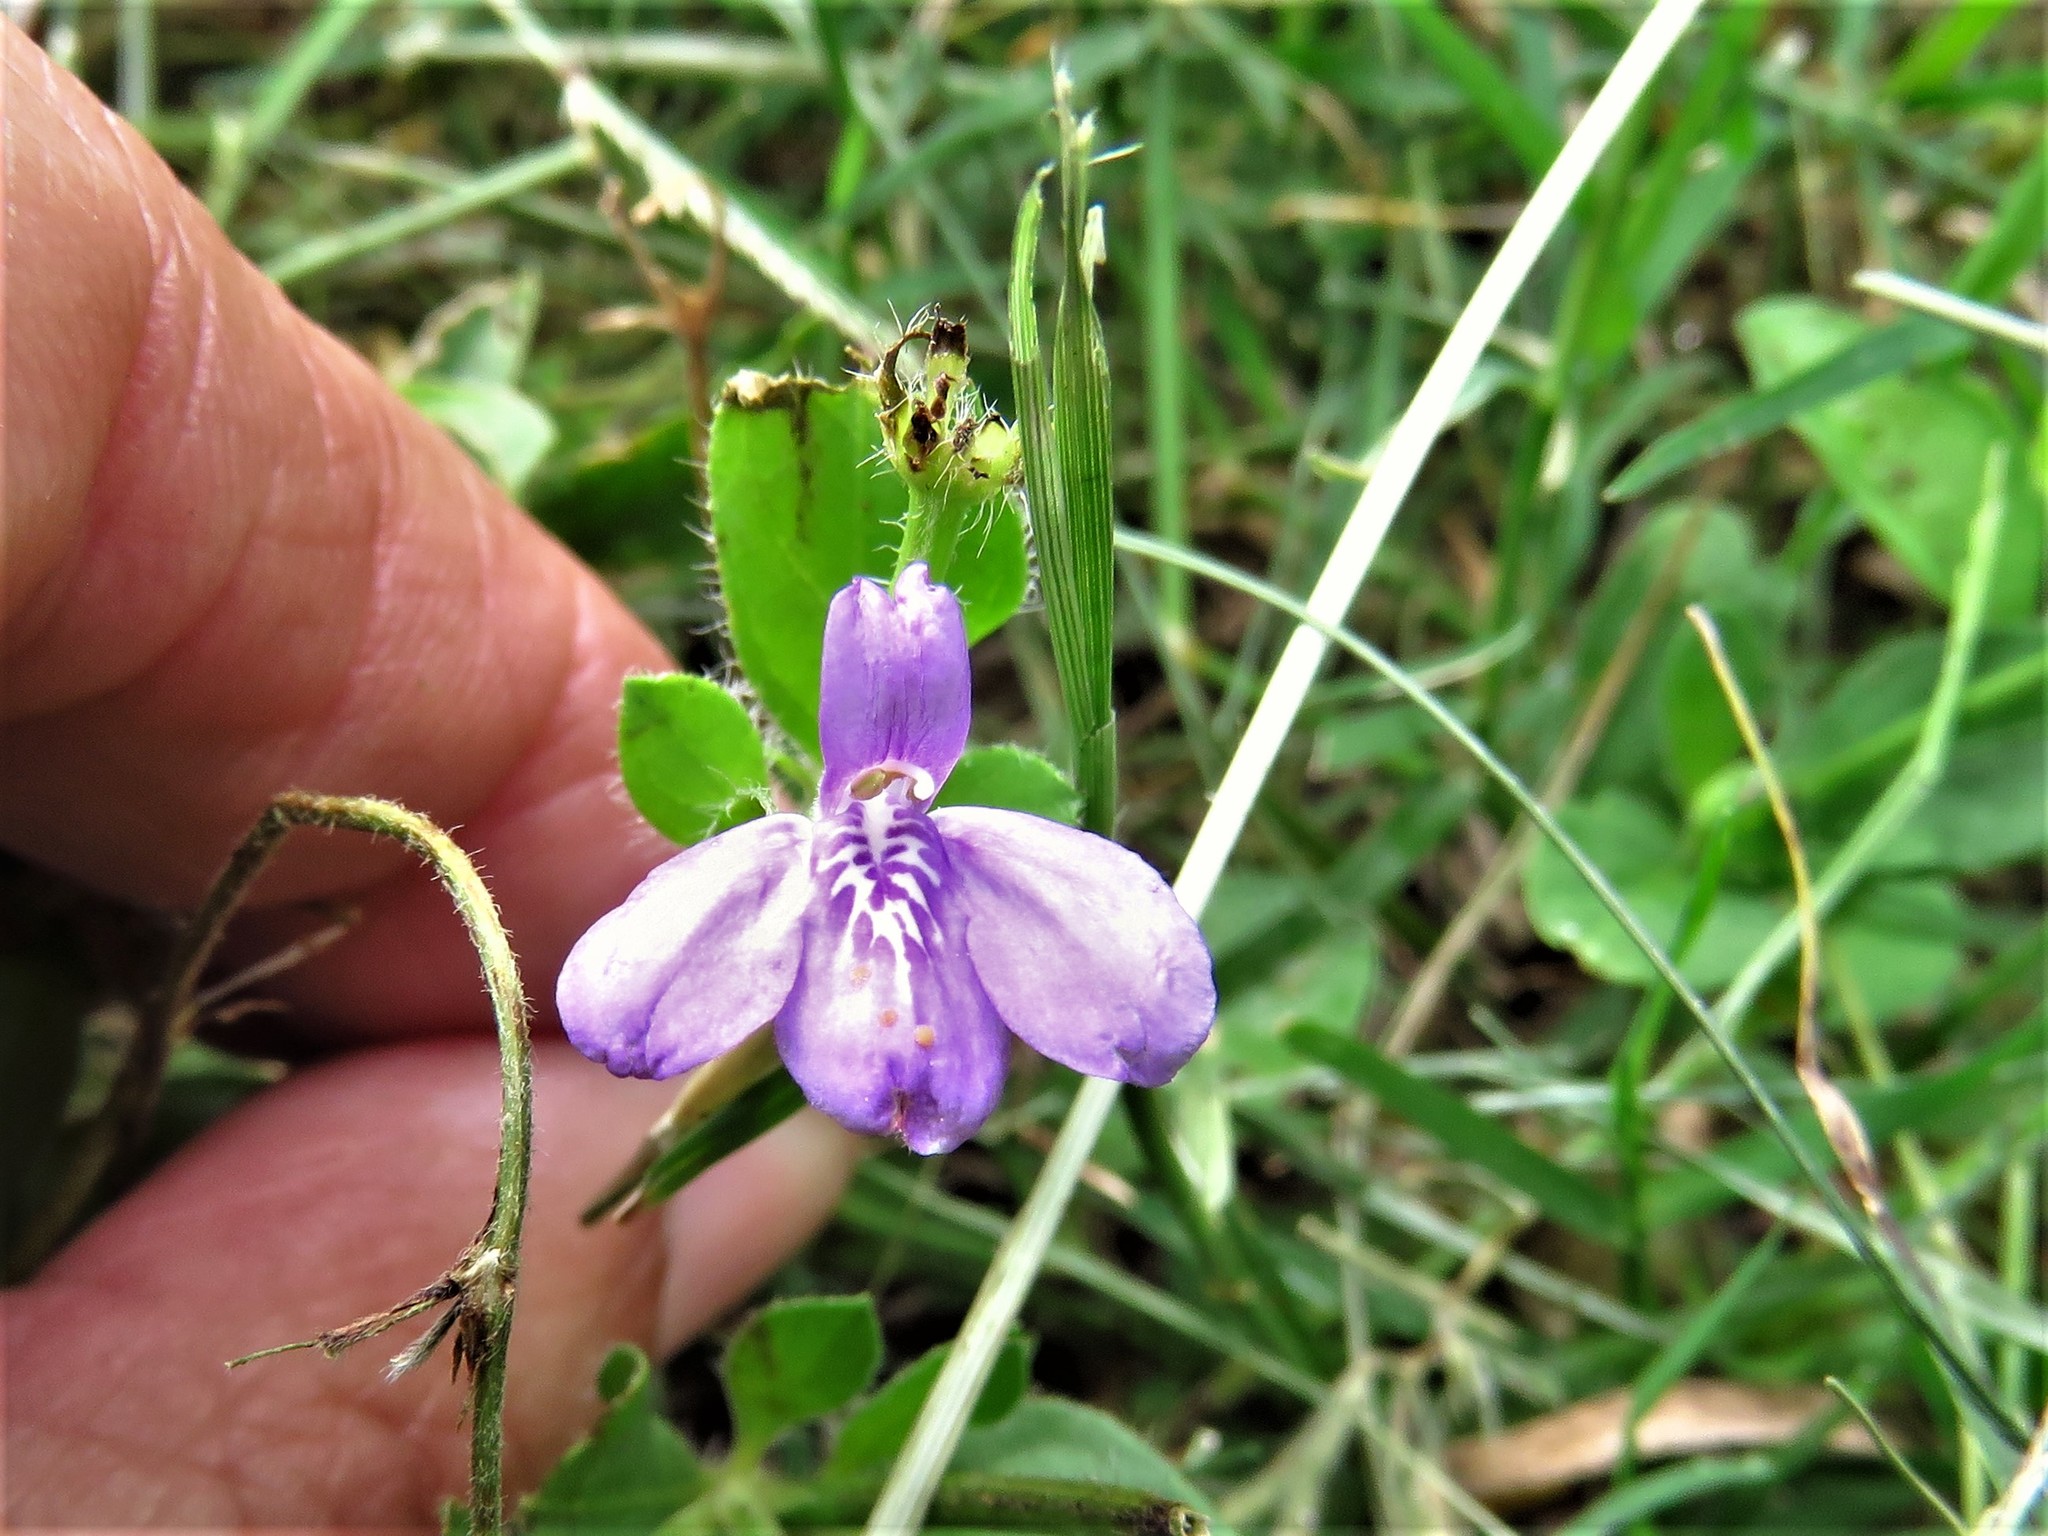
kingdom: Plantae
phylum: Tracheophyta
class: Magnoliopsida
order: Lamiales
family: Acanthaceae
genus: Justicia
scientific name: Justicia pilosella
